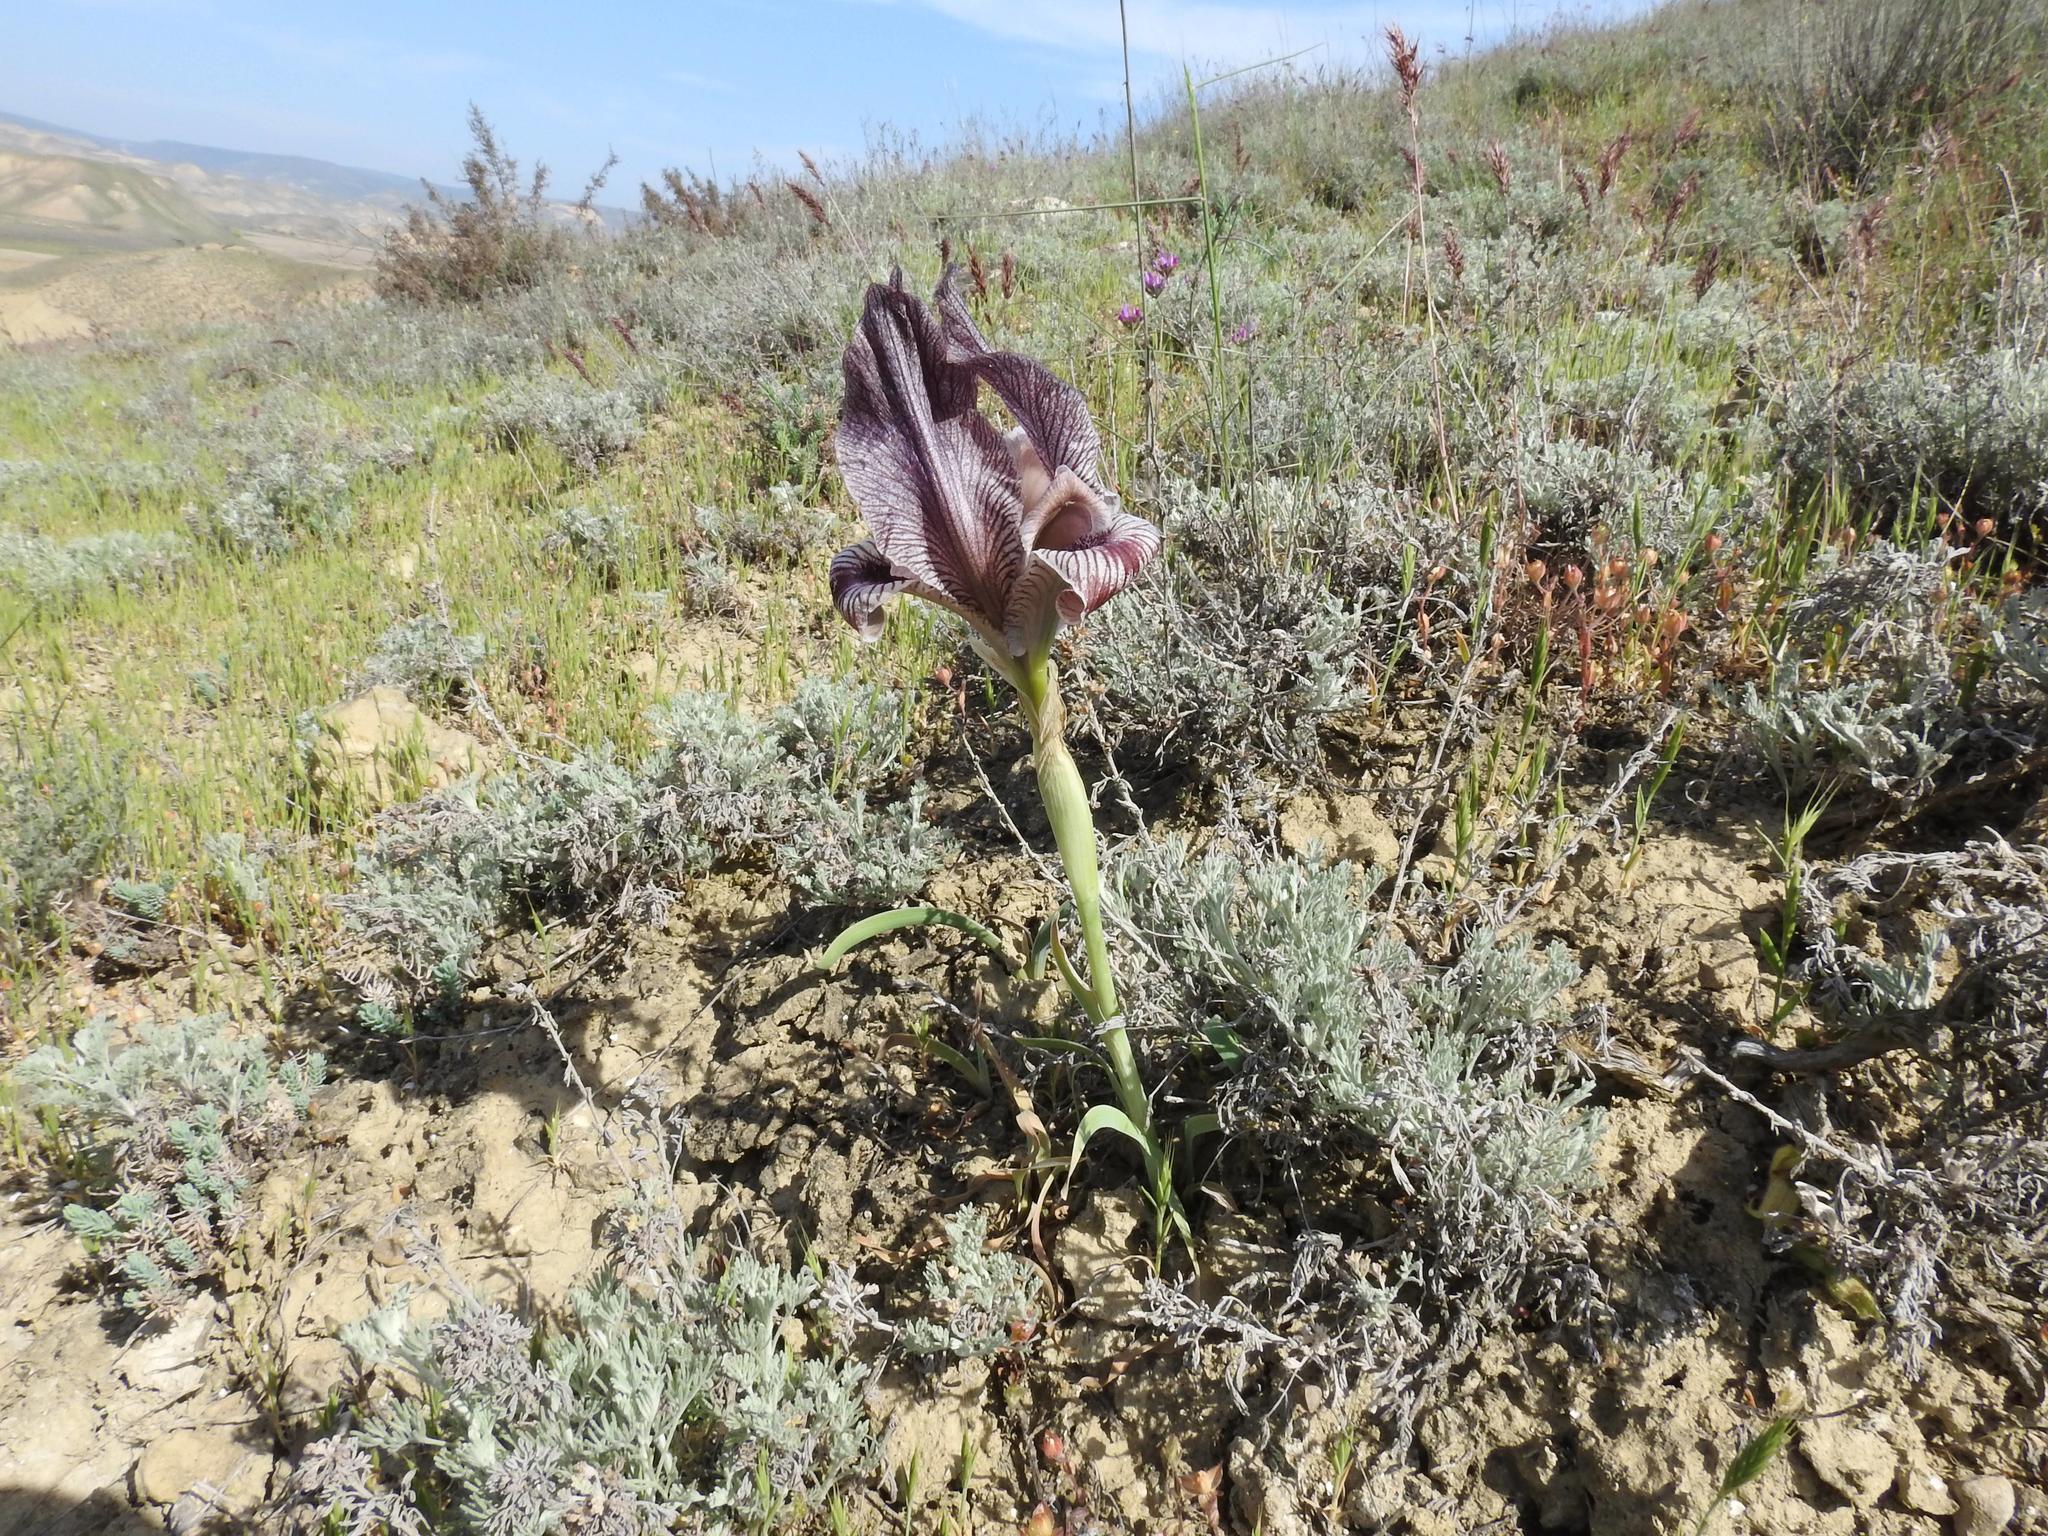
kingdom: Plantae
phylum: Tracheophyta
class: Liliopsida
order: Asparagales
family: Iridaceae
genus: Iris
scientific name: Iris acutiloba
